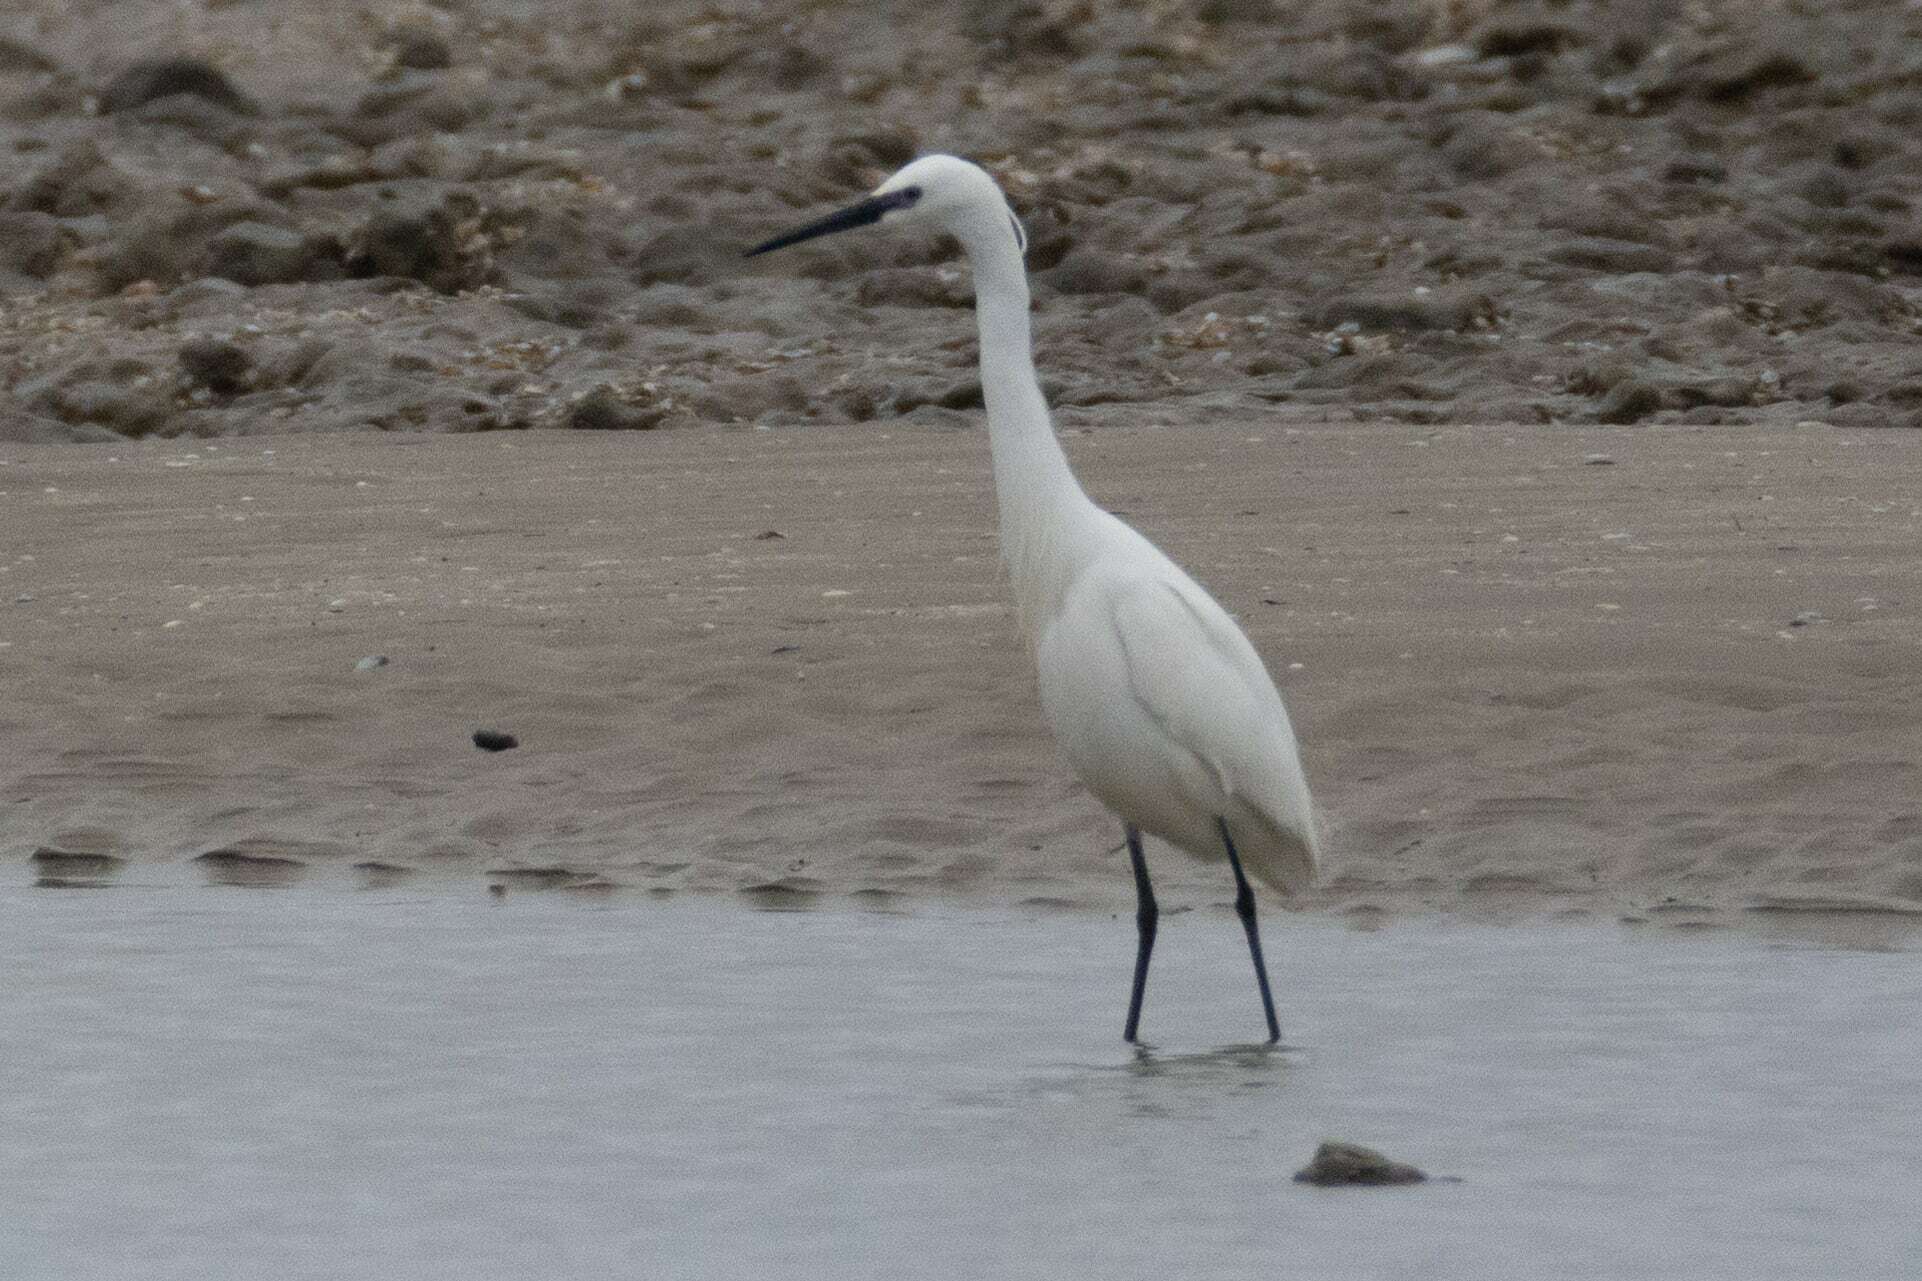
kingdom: Animalia
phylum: Chordata
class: Aves
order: Pelecaniformes
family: Ardeidae
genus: Egretta
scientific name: Egretta garzetta
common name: Little egret
